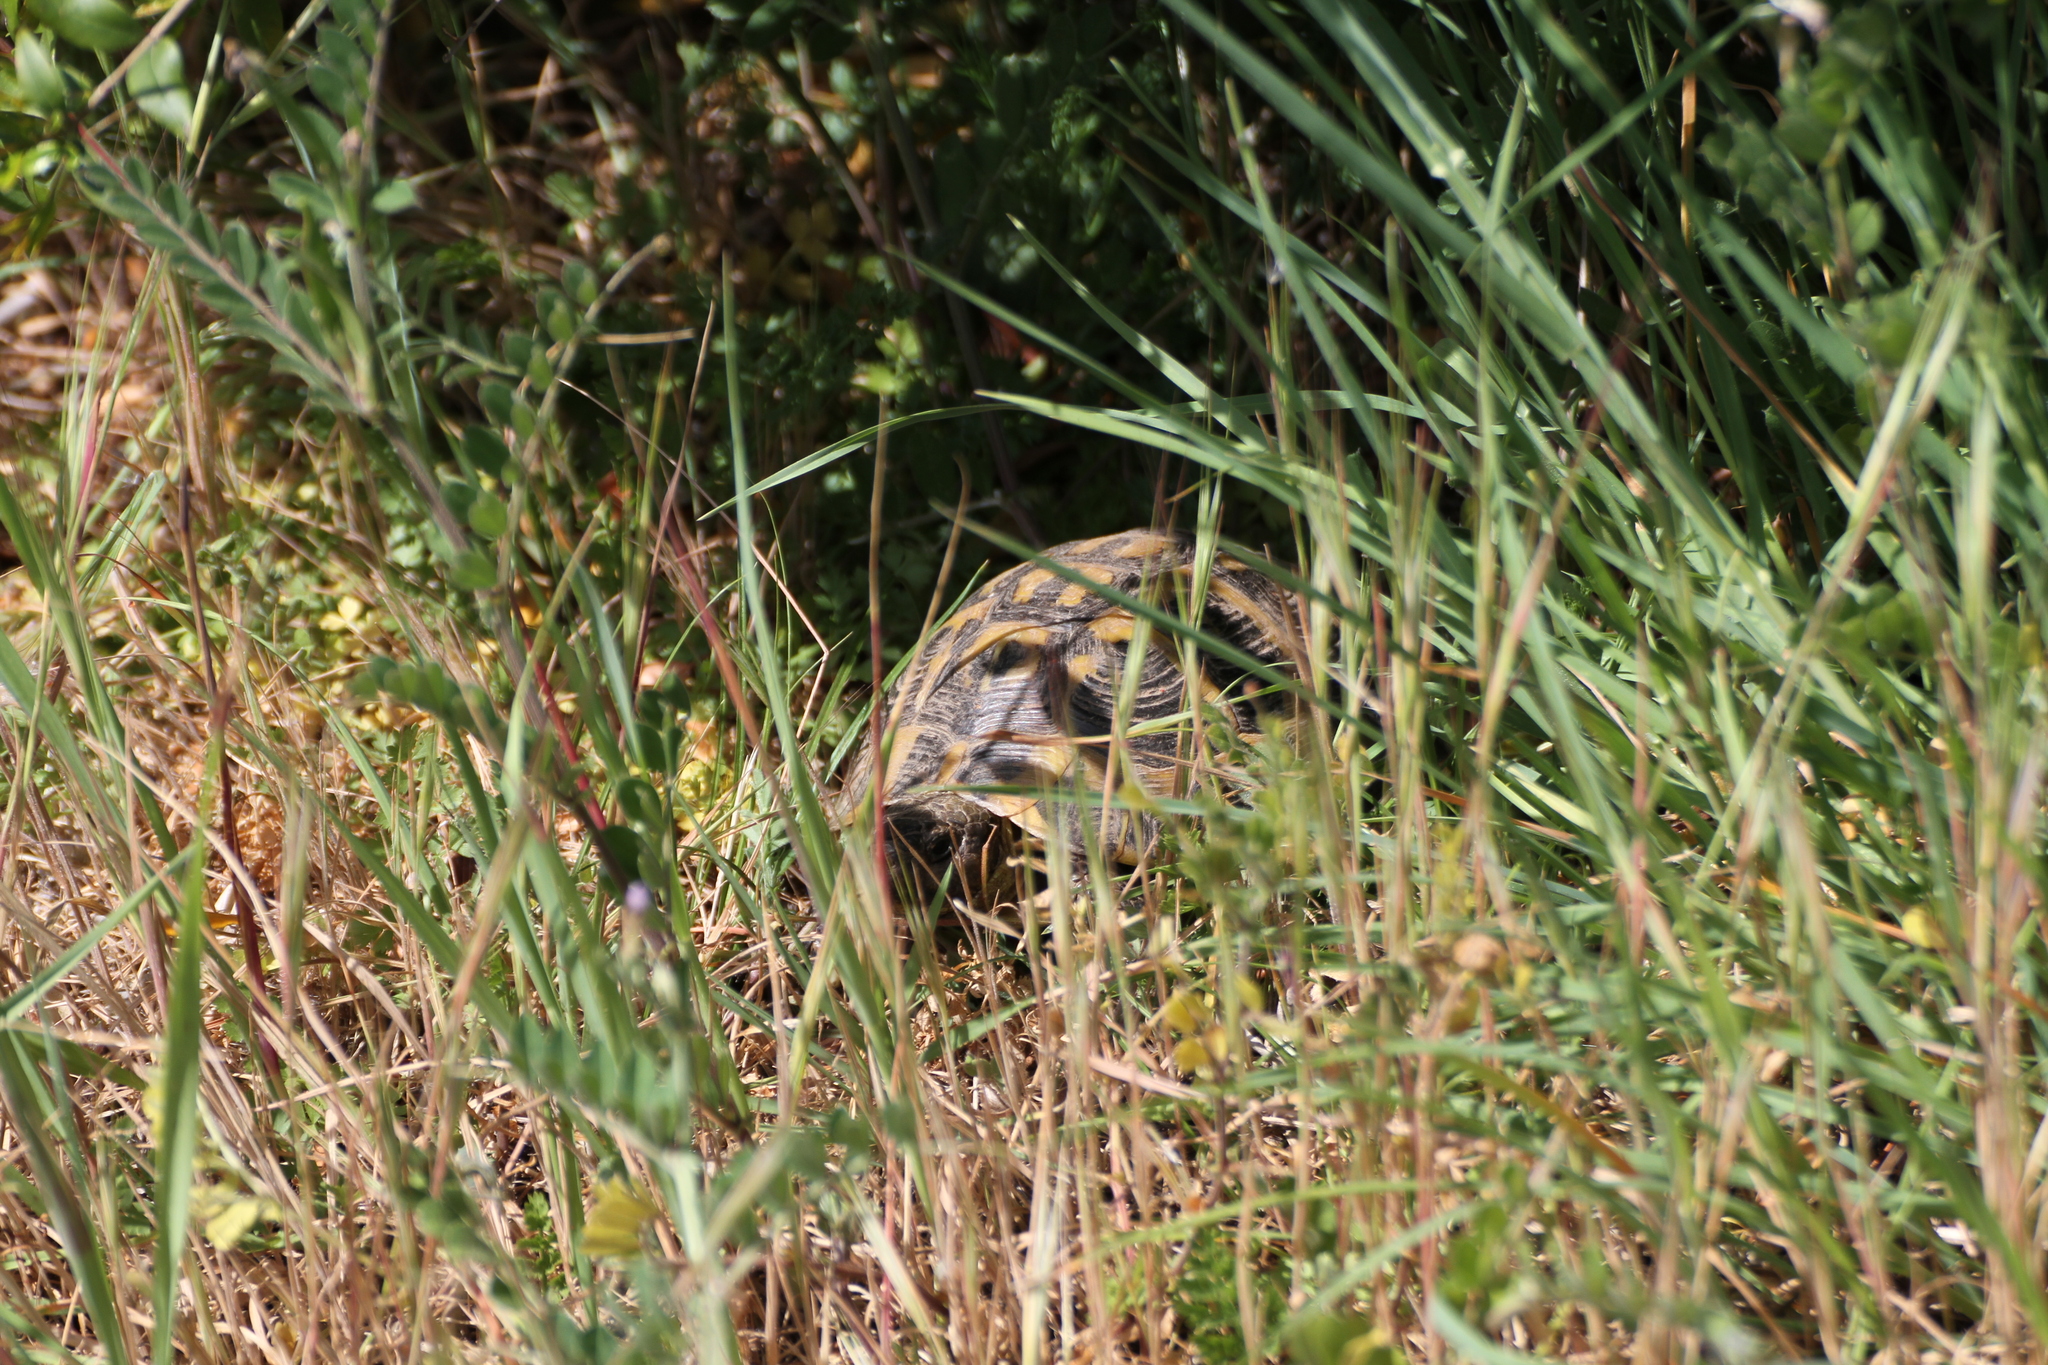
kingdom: Animalia
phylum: Chordata
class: Testudines
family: Testudinidae
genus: Testudo
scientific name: Testudo hermanni
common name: Hermann's tortoise
